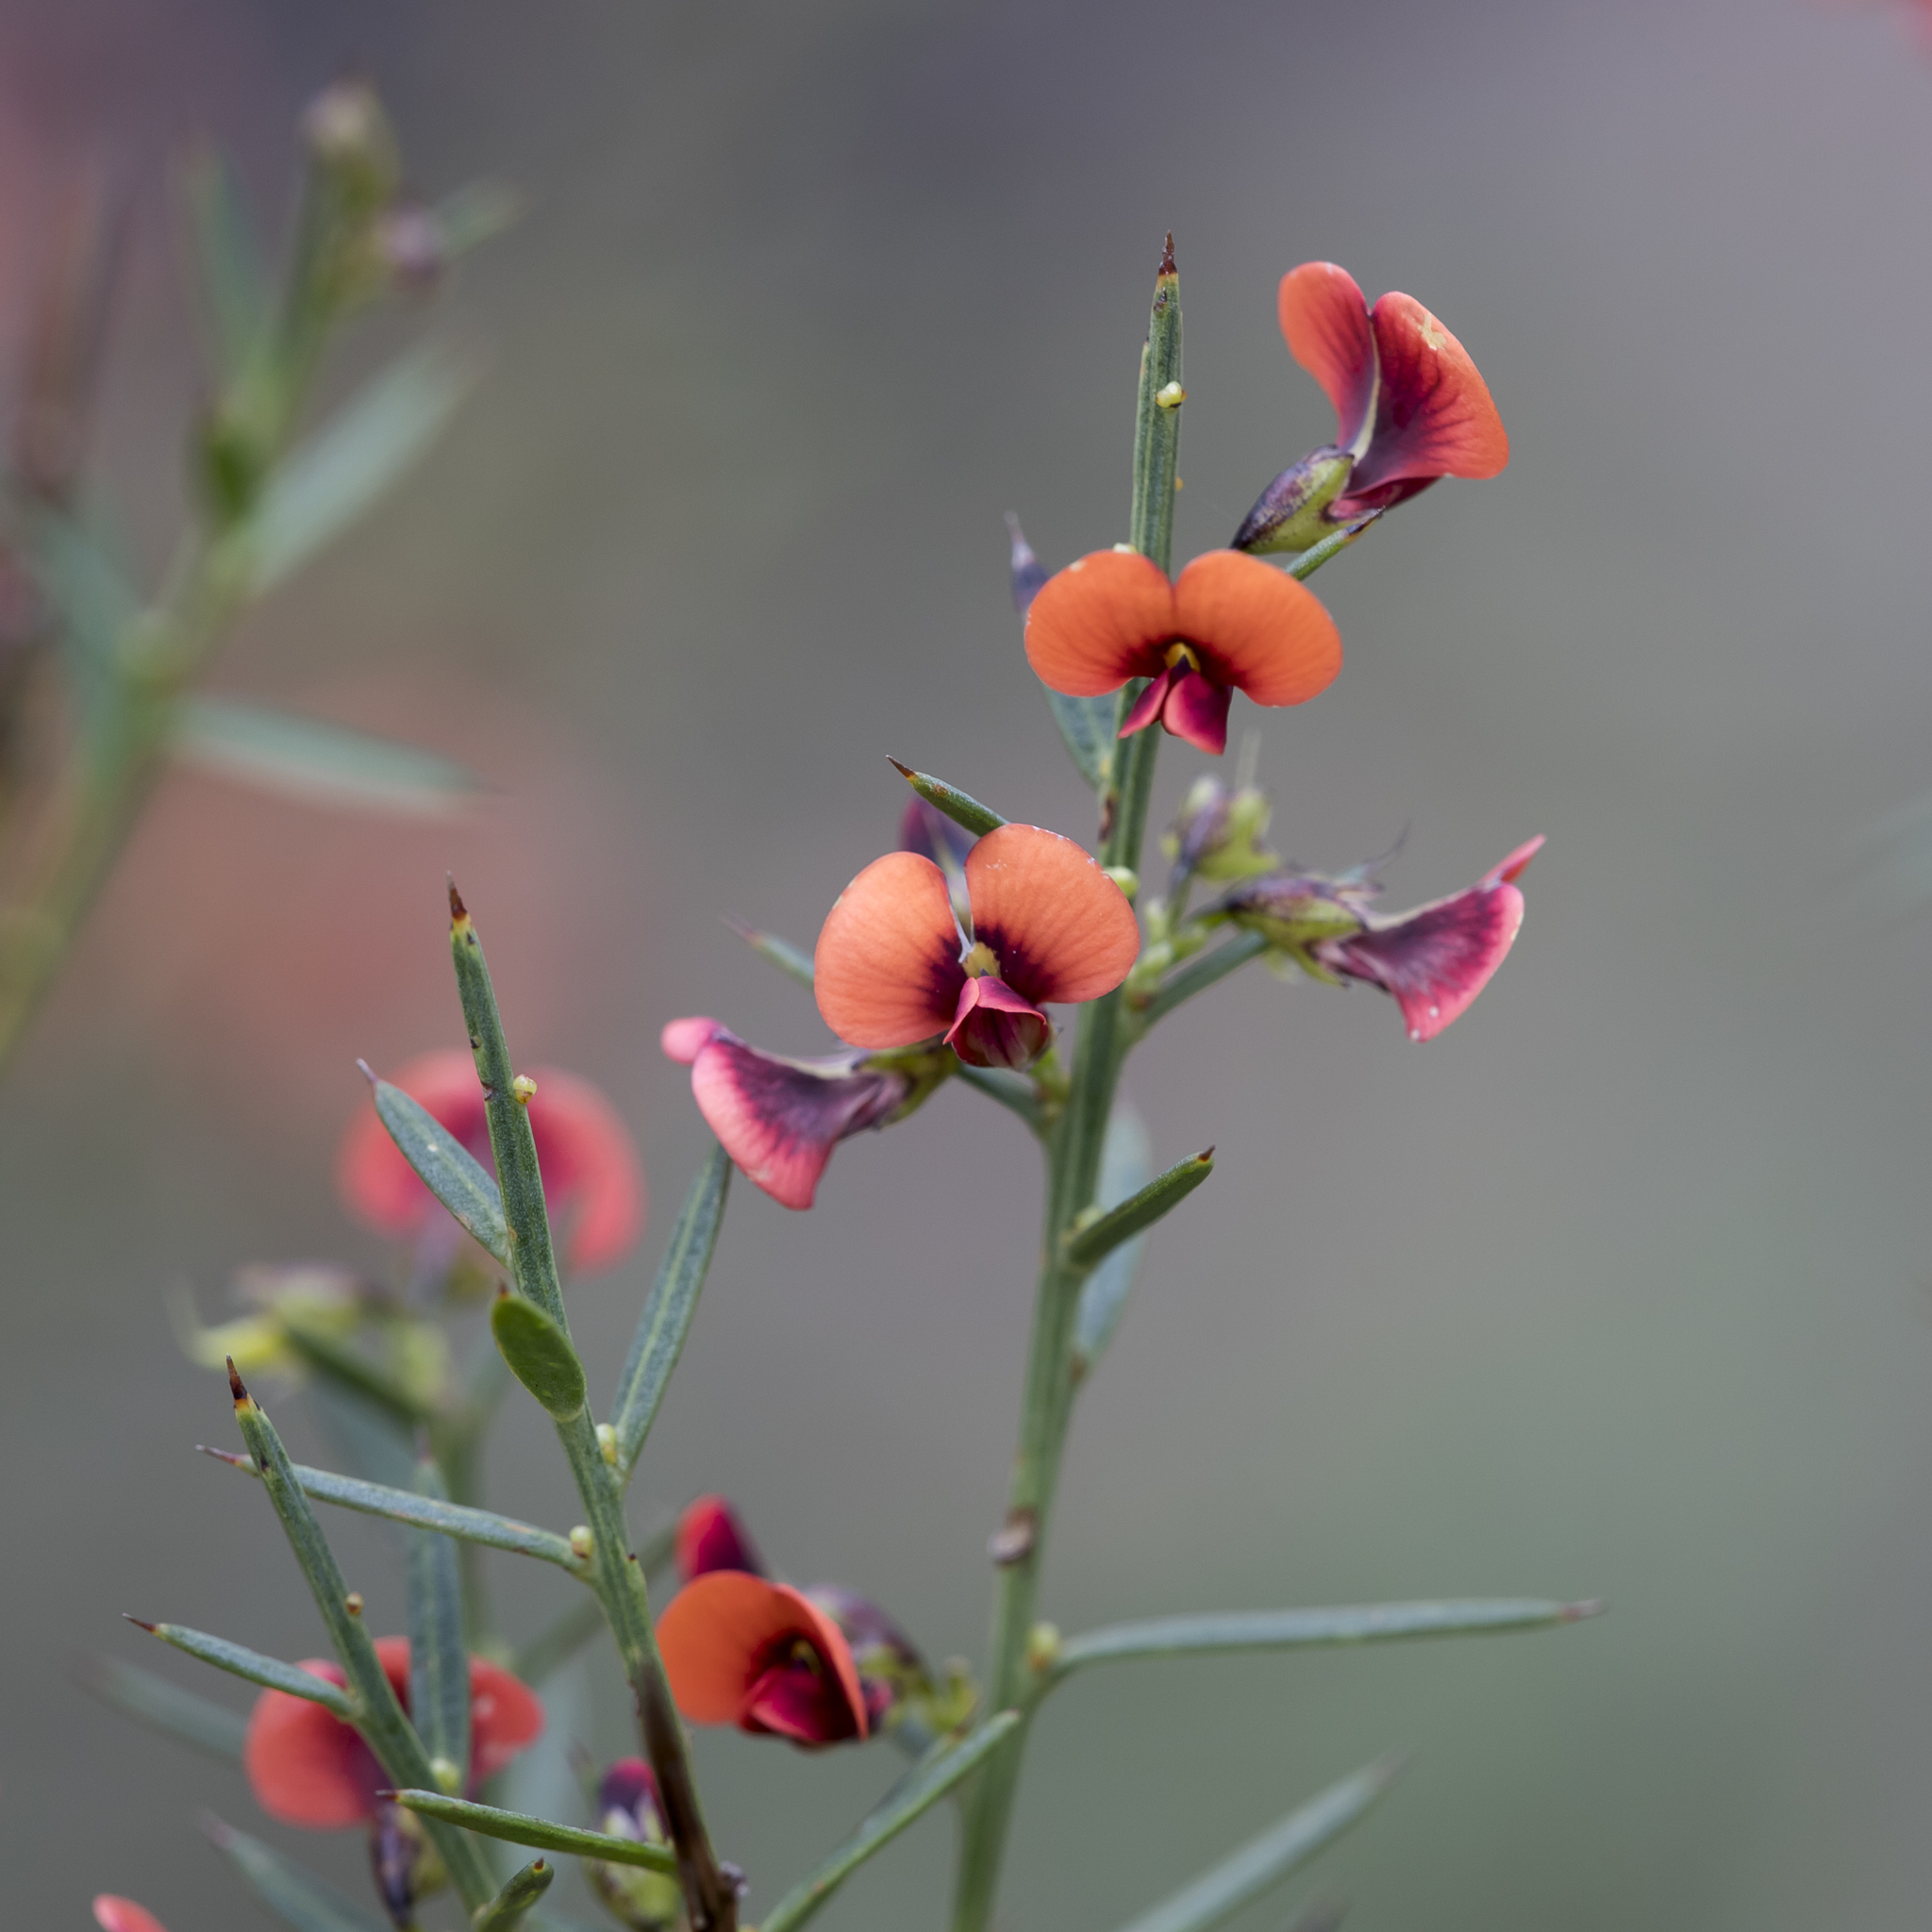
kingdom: Plantae
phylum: Tracheophyta
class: Magnoliopsida
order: Fabales
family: Fabaceae
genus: Daviesia
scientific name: Daviesia ulicifolia
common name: Gorse bitter-pea
